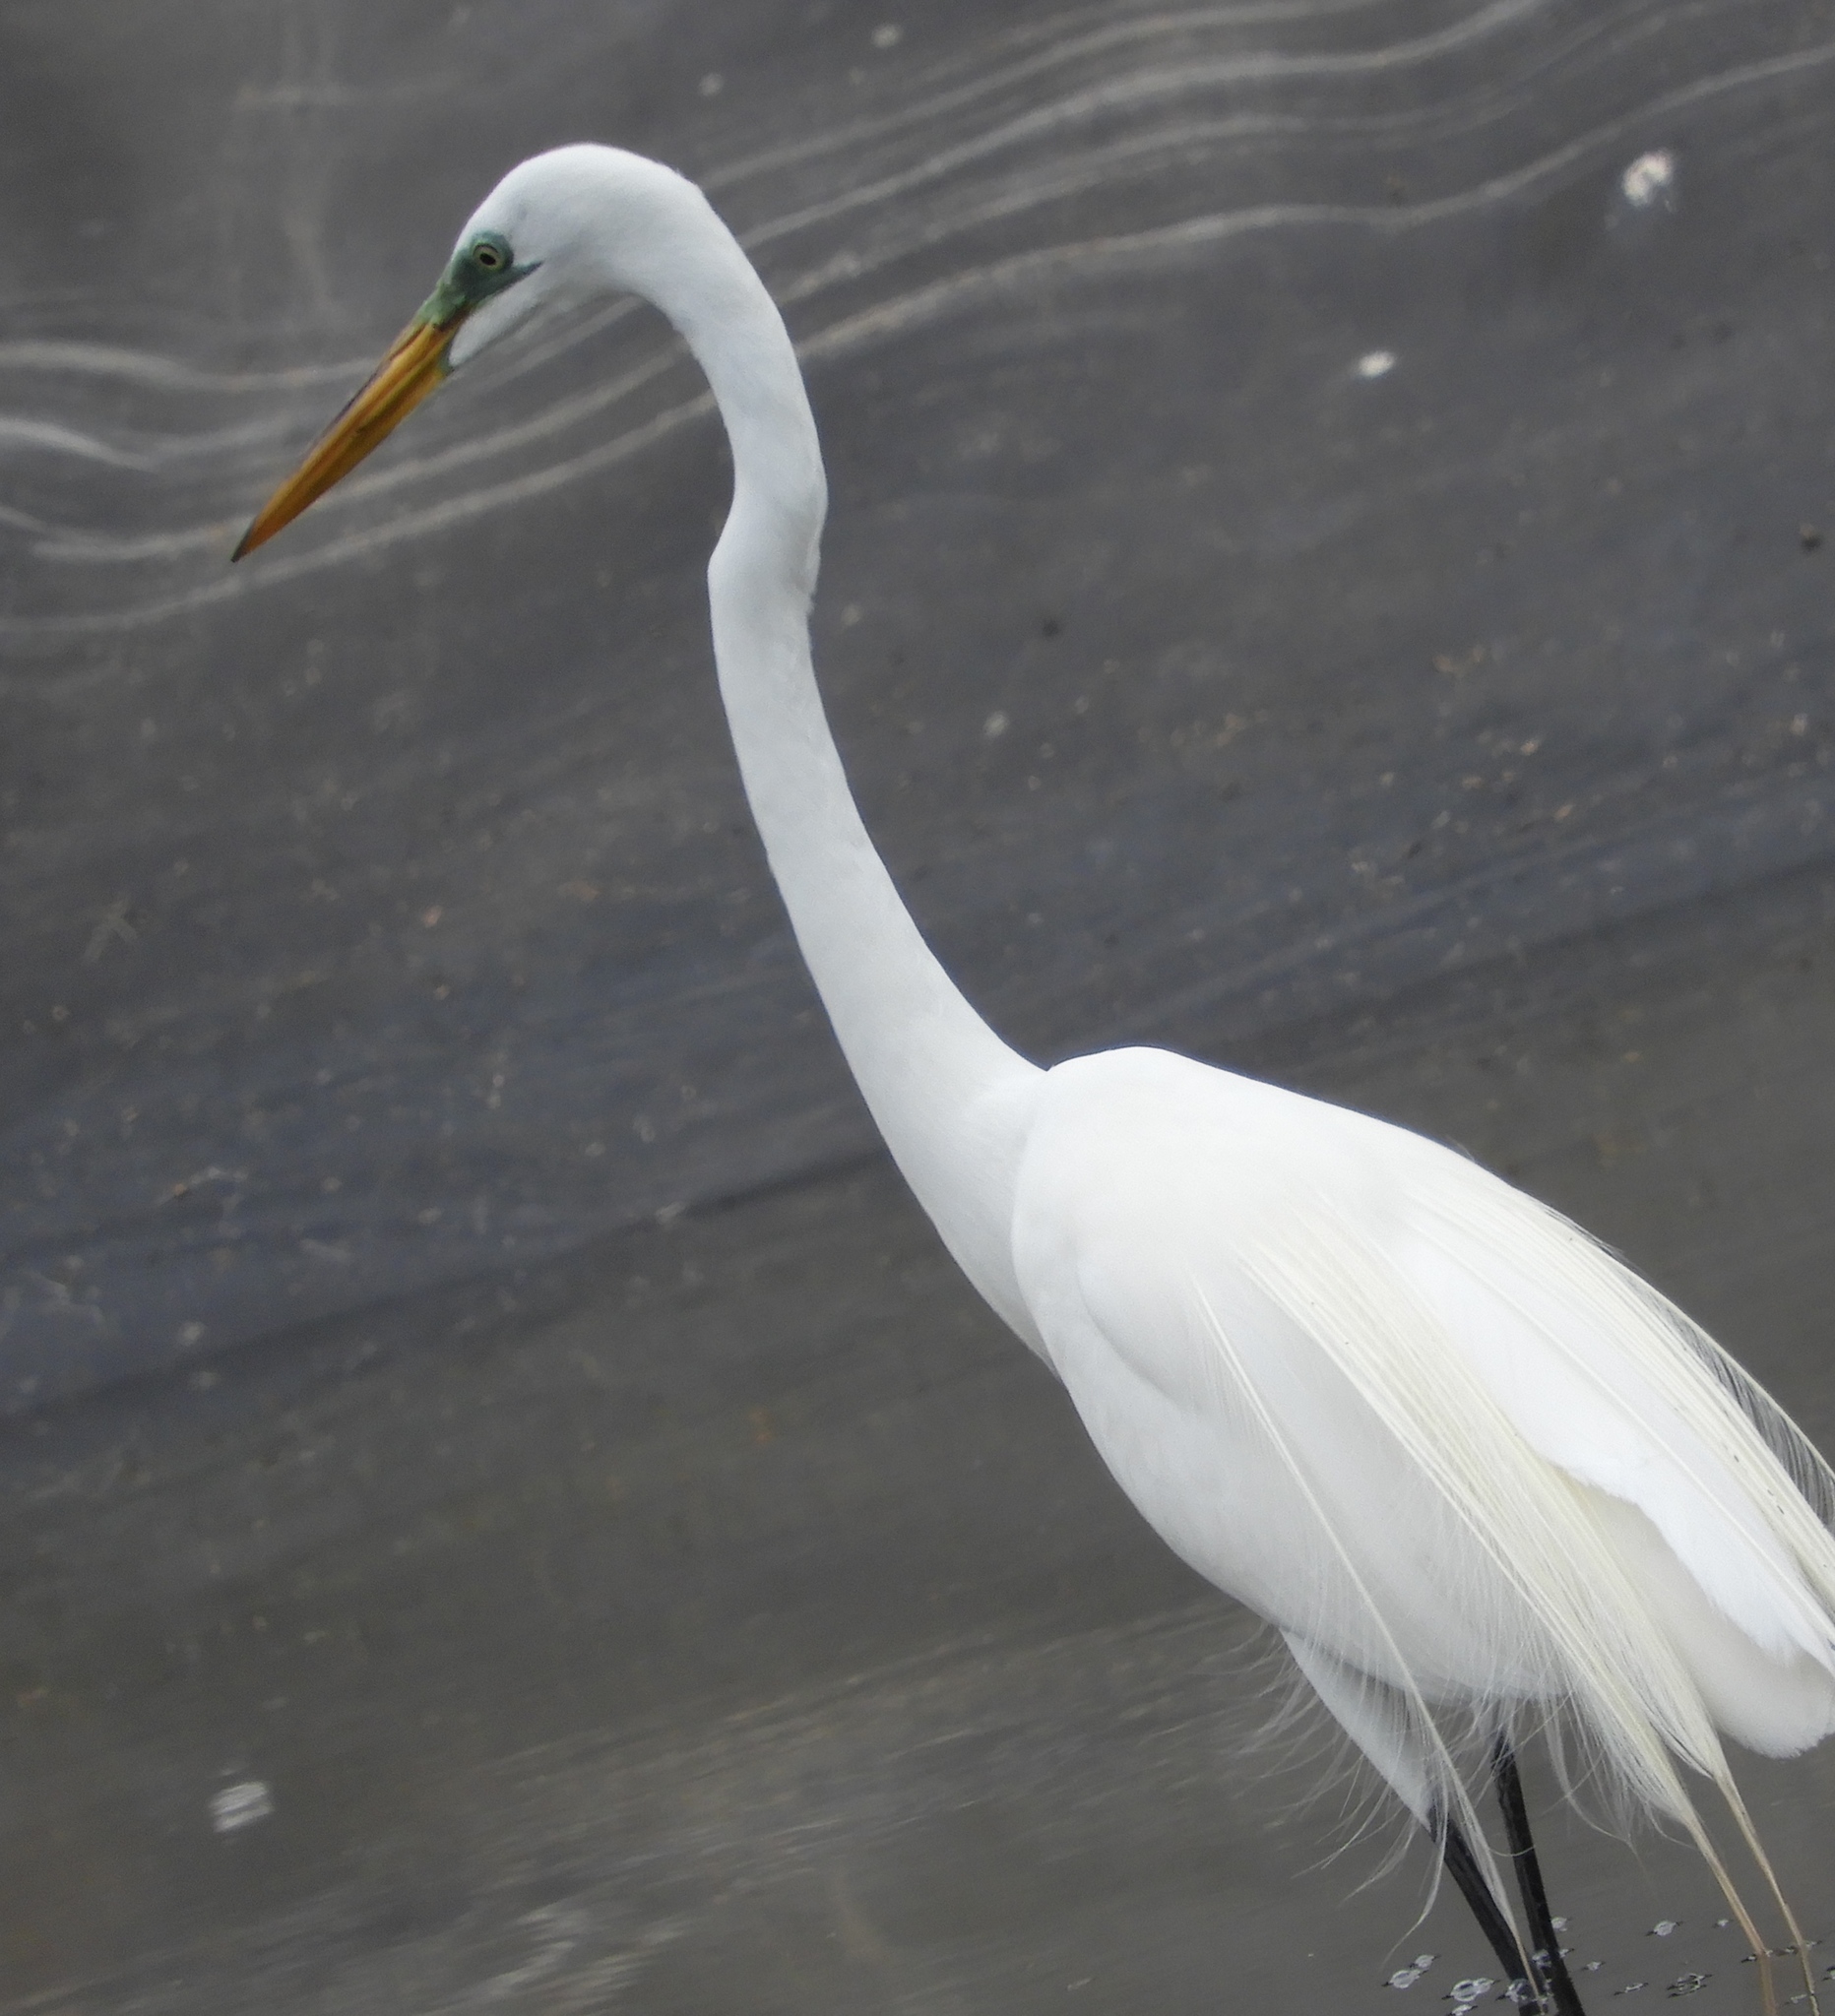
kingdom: Animalia
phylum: Chordata
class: Aves
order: Pelecaniformes
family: Ardeidae
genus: Ardea
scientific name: Ardea alba
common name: Great egret
